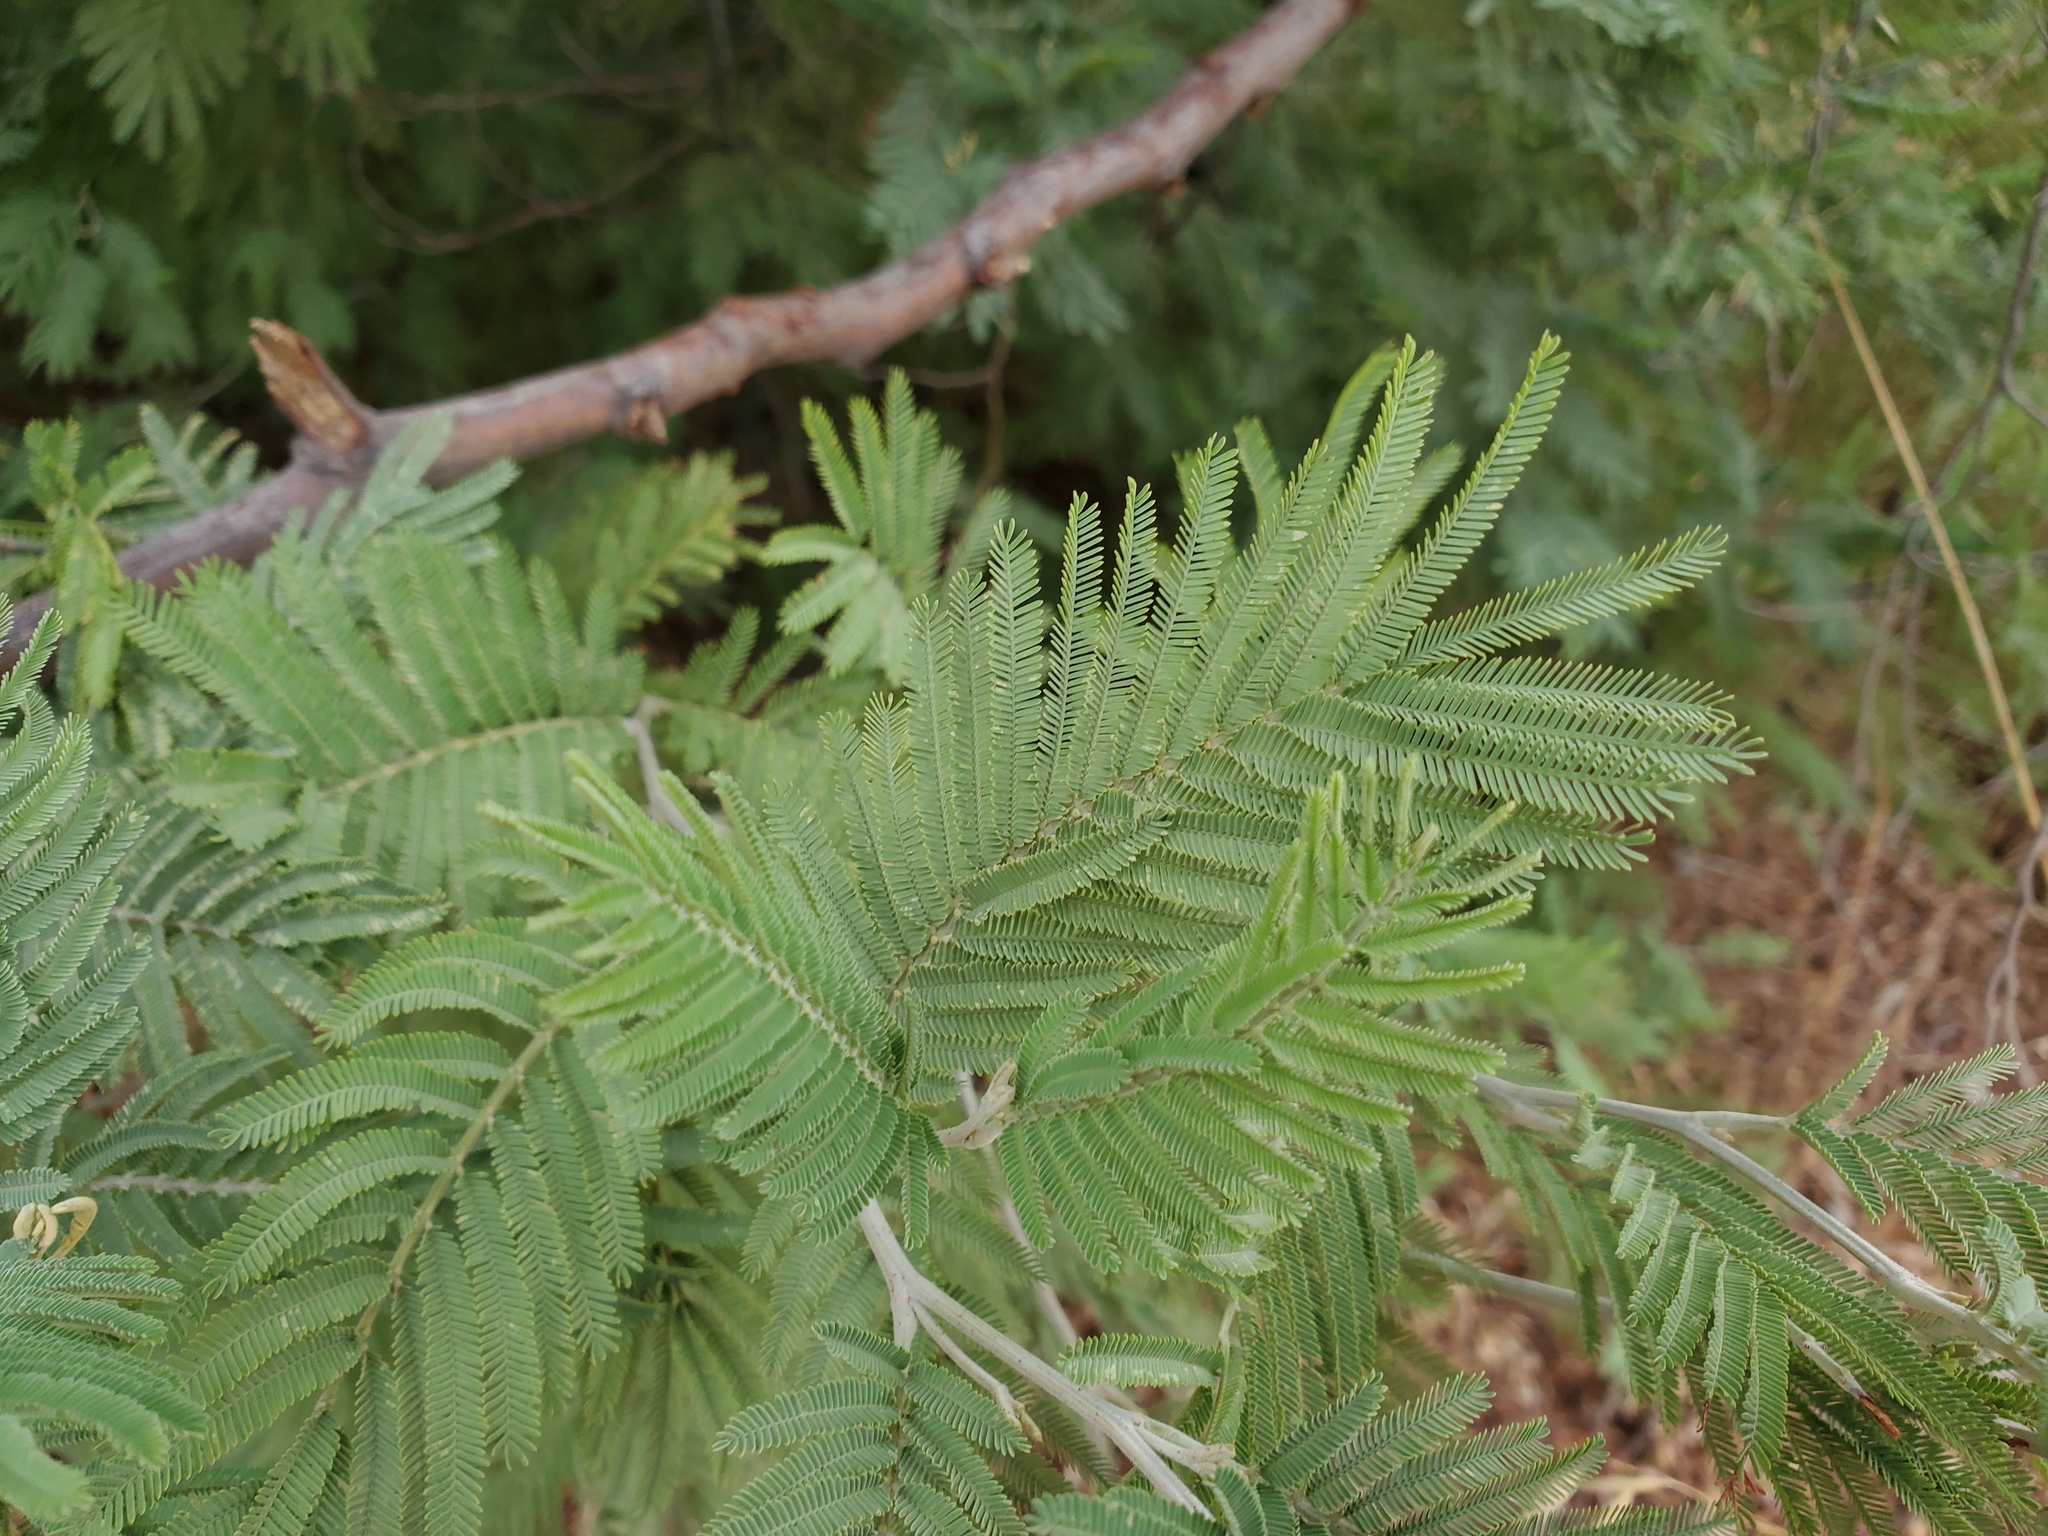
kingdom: Plantae
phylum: Tracheophyta
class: Magnoliopsida
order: Fabales
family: Fabaceae
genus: Acacia
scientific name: Acacia dealbata
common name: Silver wattle
